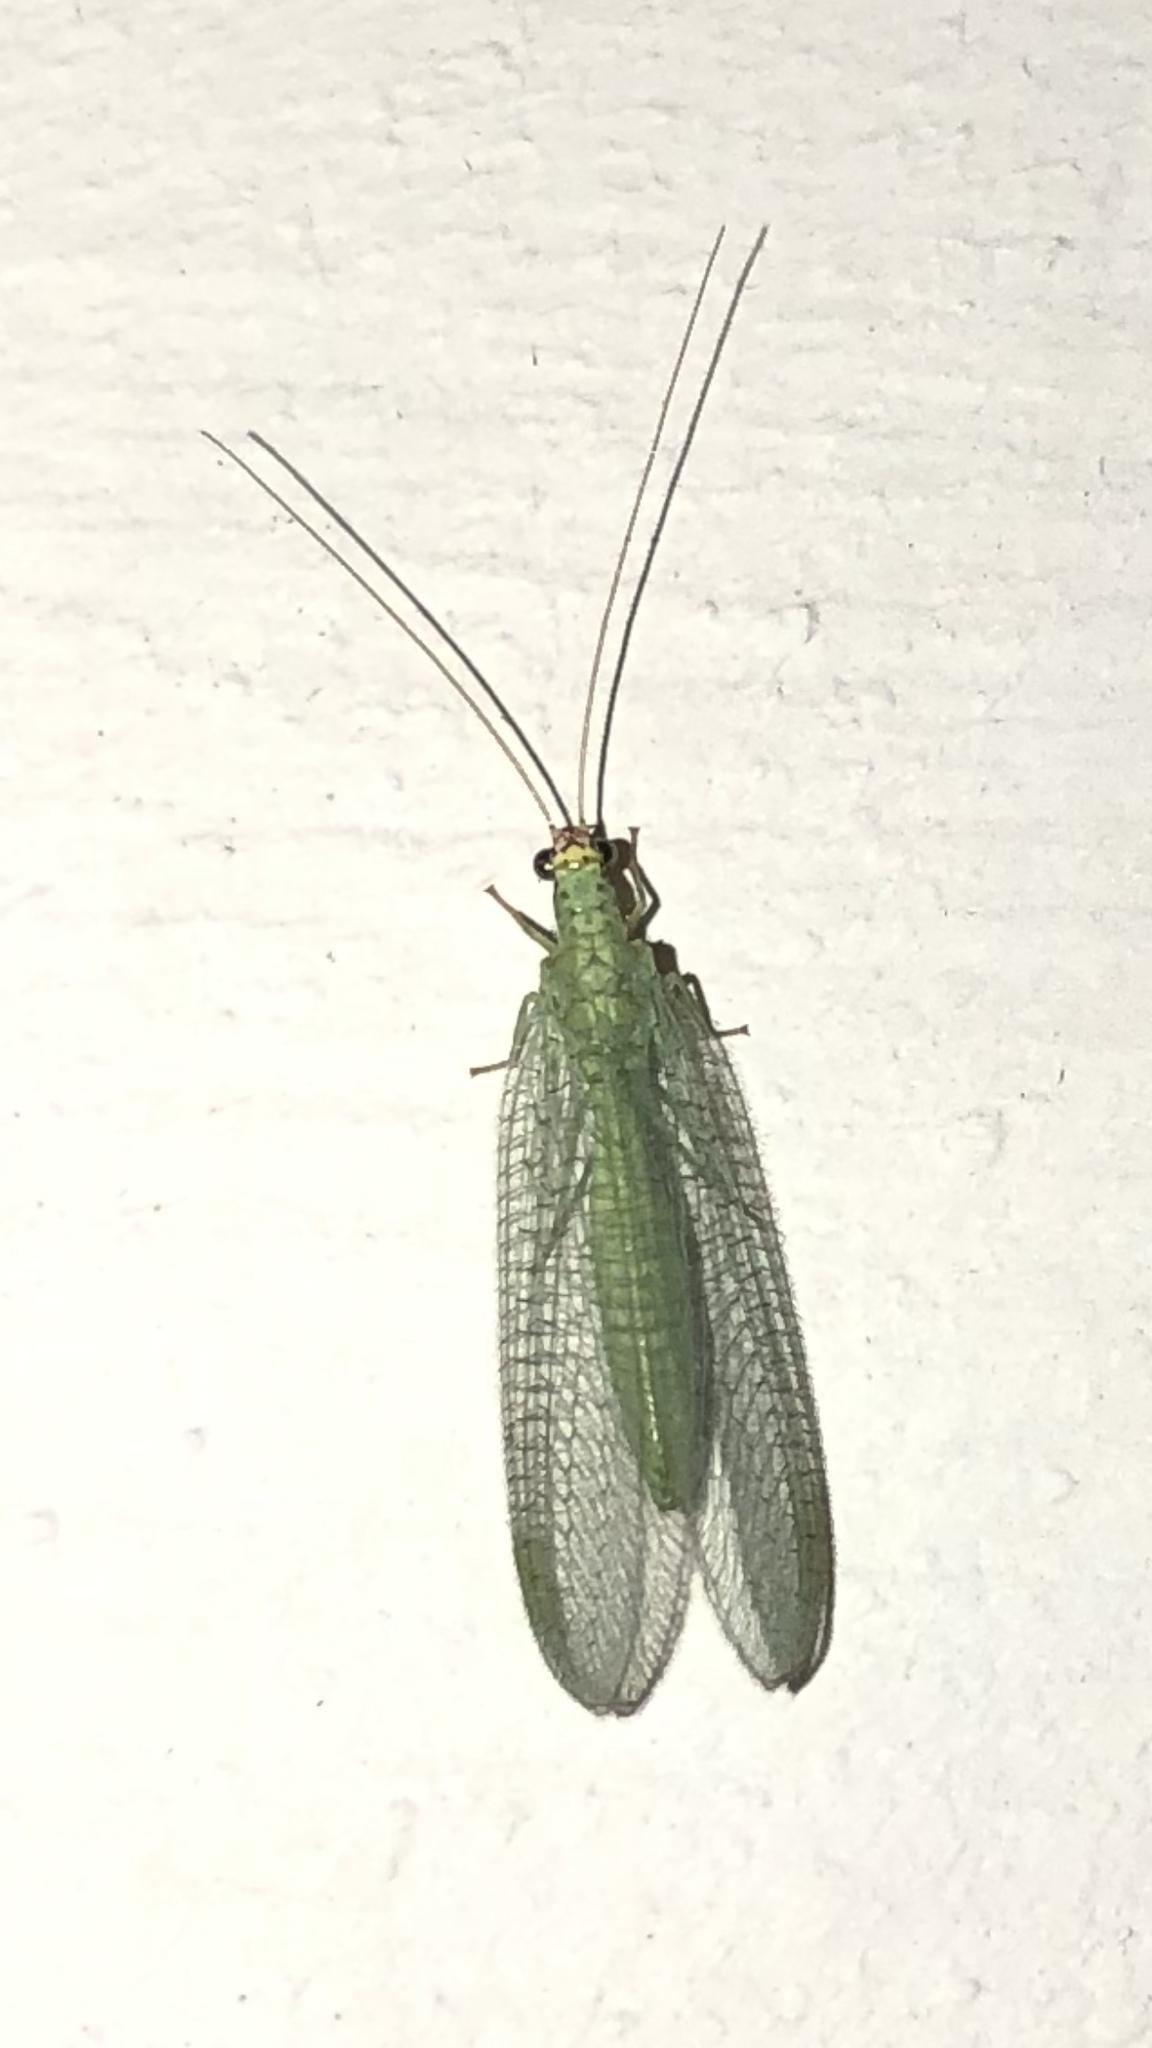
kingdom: Animalia
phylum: Arthropoda
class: Insecta
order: Neuroptera
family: Chrysopidae
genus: Chrysopa
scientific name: Chrysopa oculata
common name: Golden-eyed lacewing
